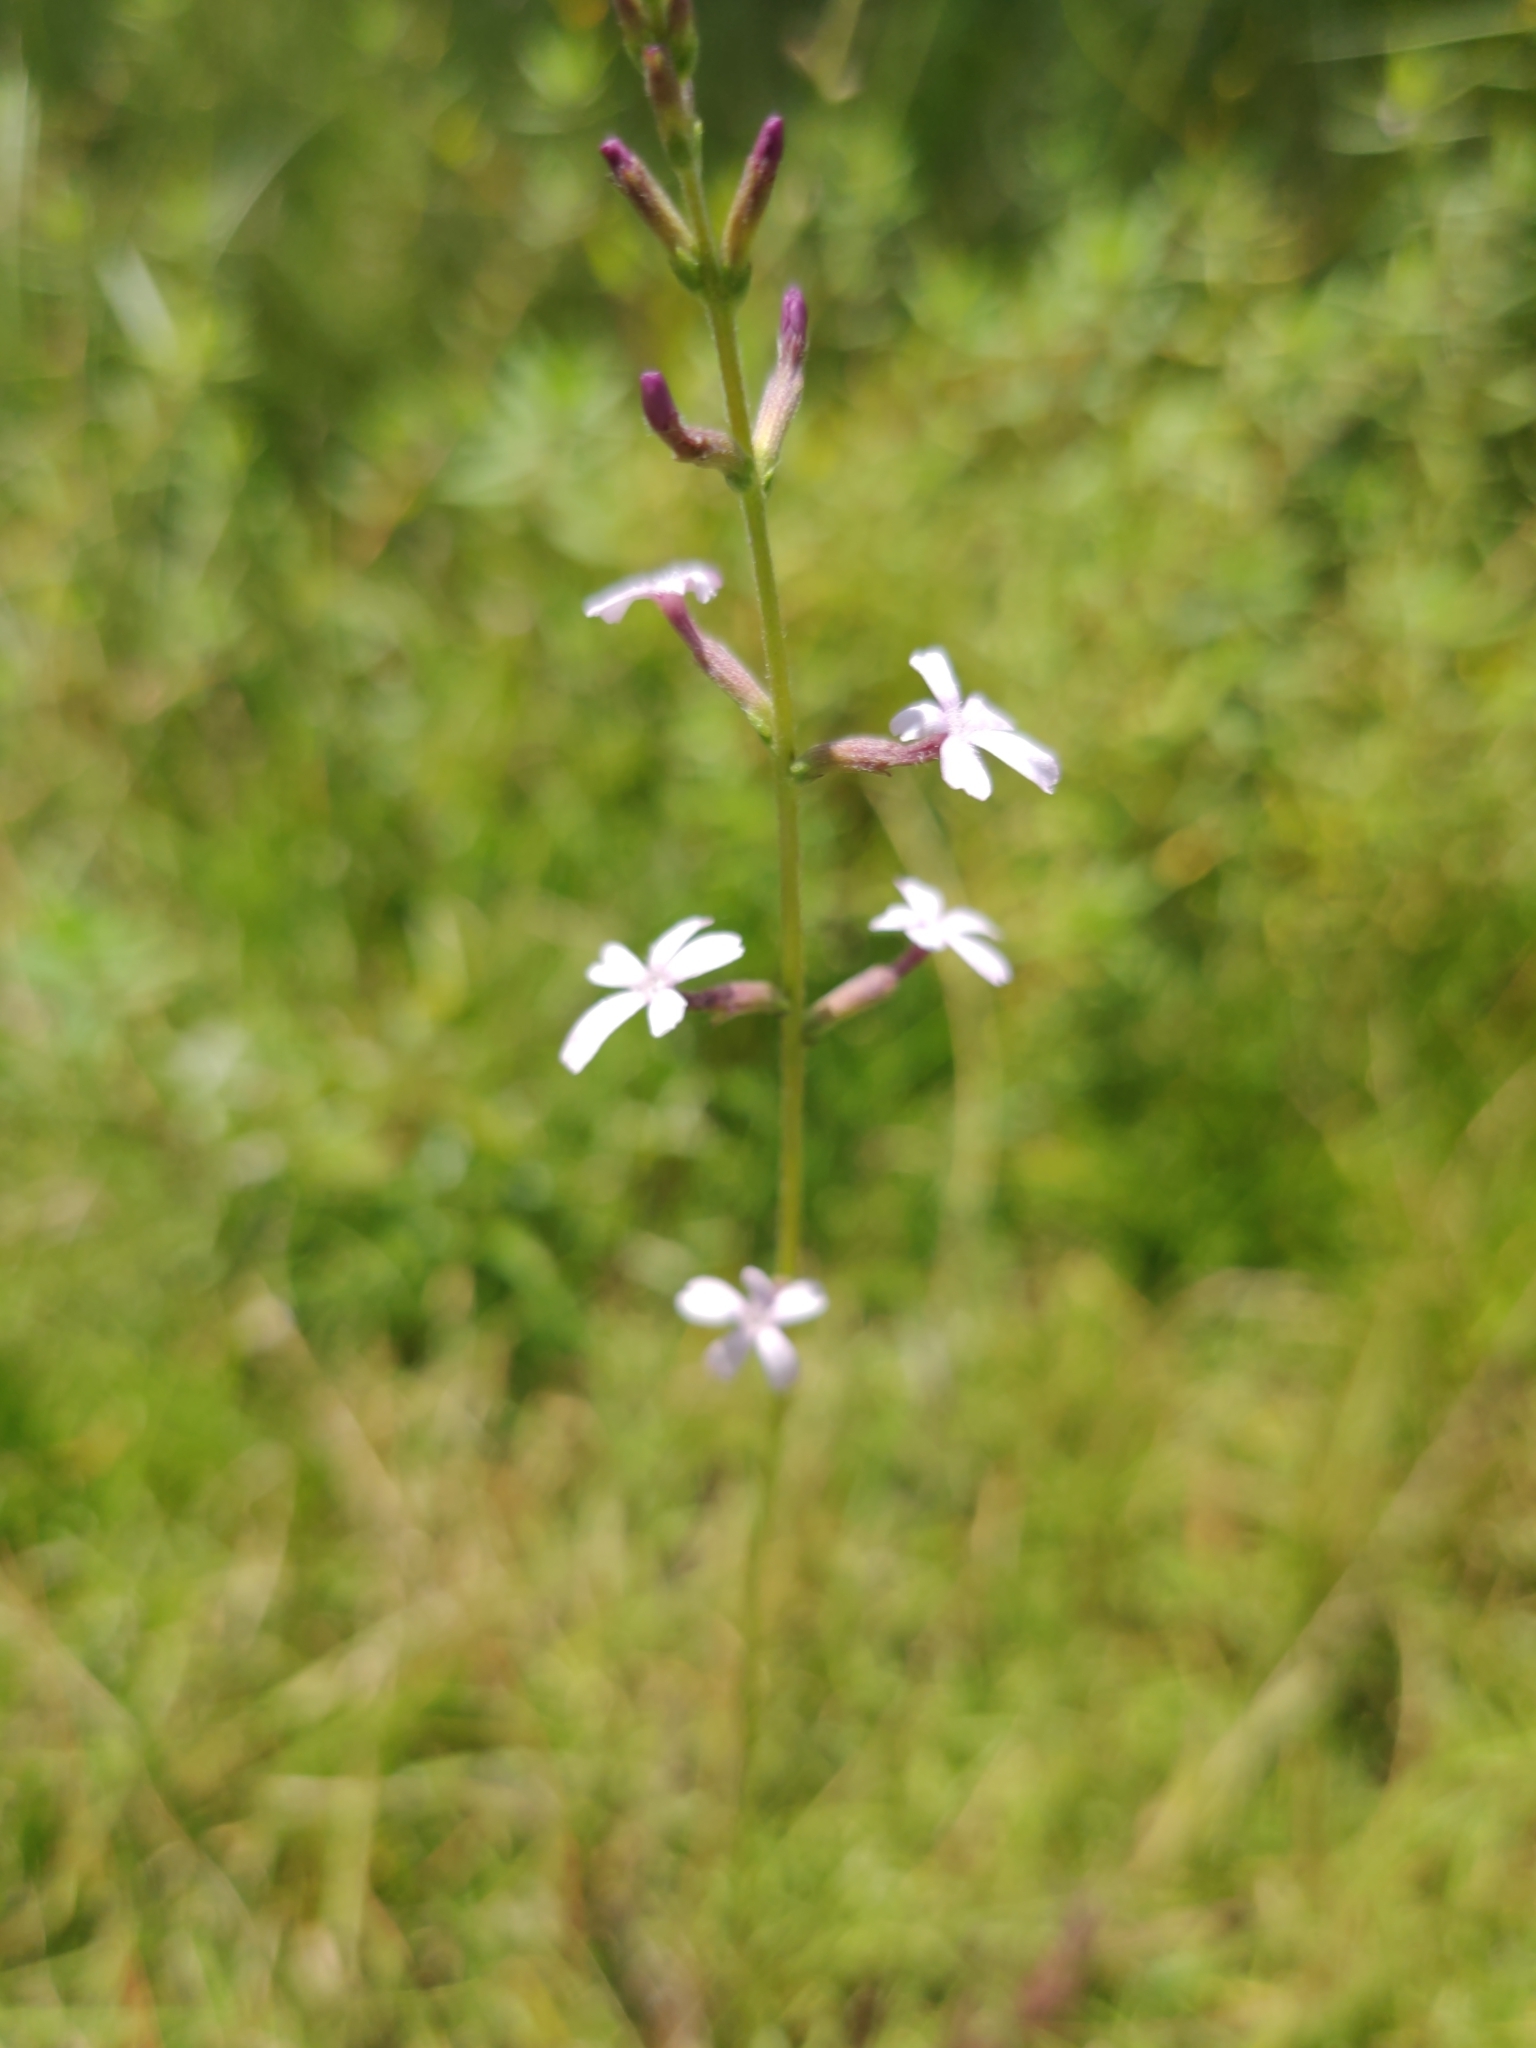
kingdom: Plantae
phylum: Tracheophyta
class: Magnoliopsida
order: Lamiales
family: Orobanchaceae
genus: Buchnera
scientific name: Buchnera floridana
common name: Florida bluehearts
